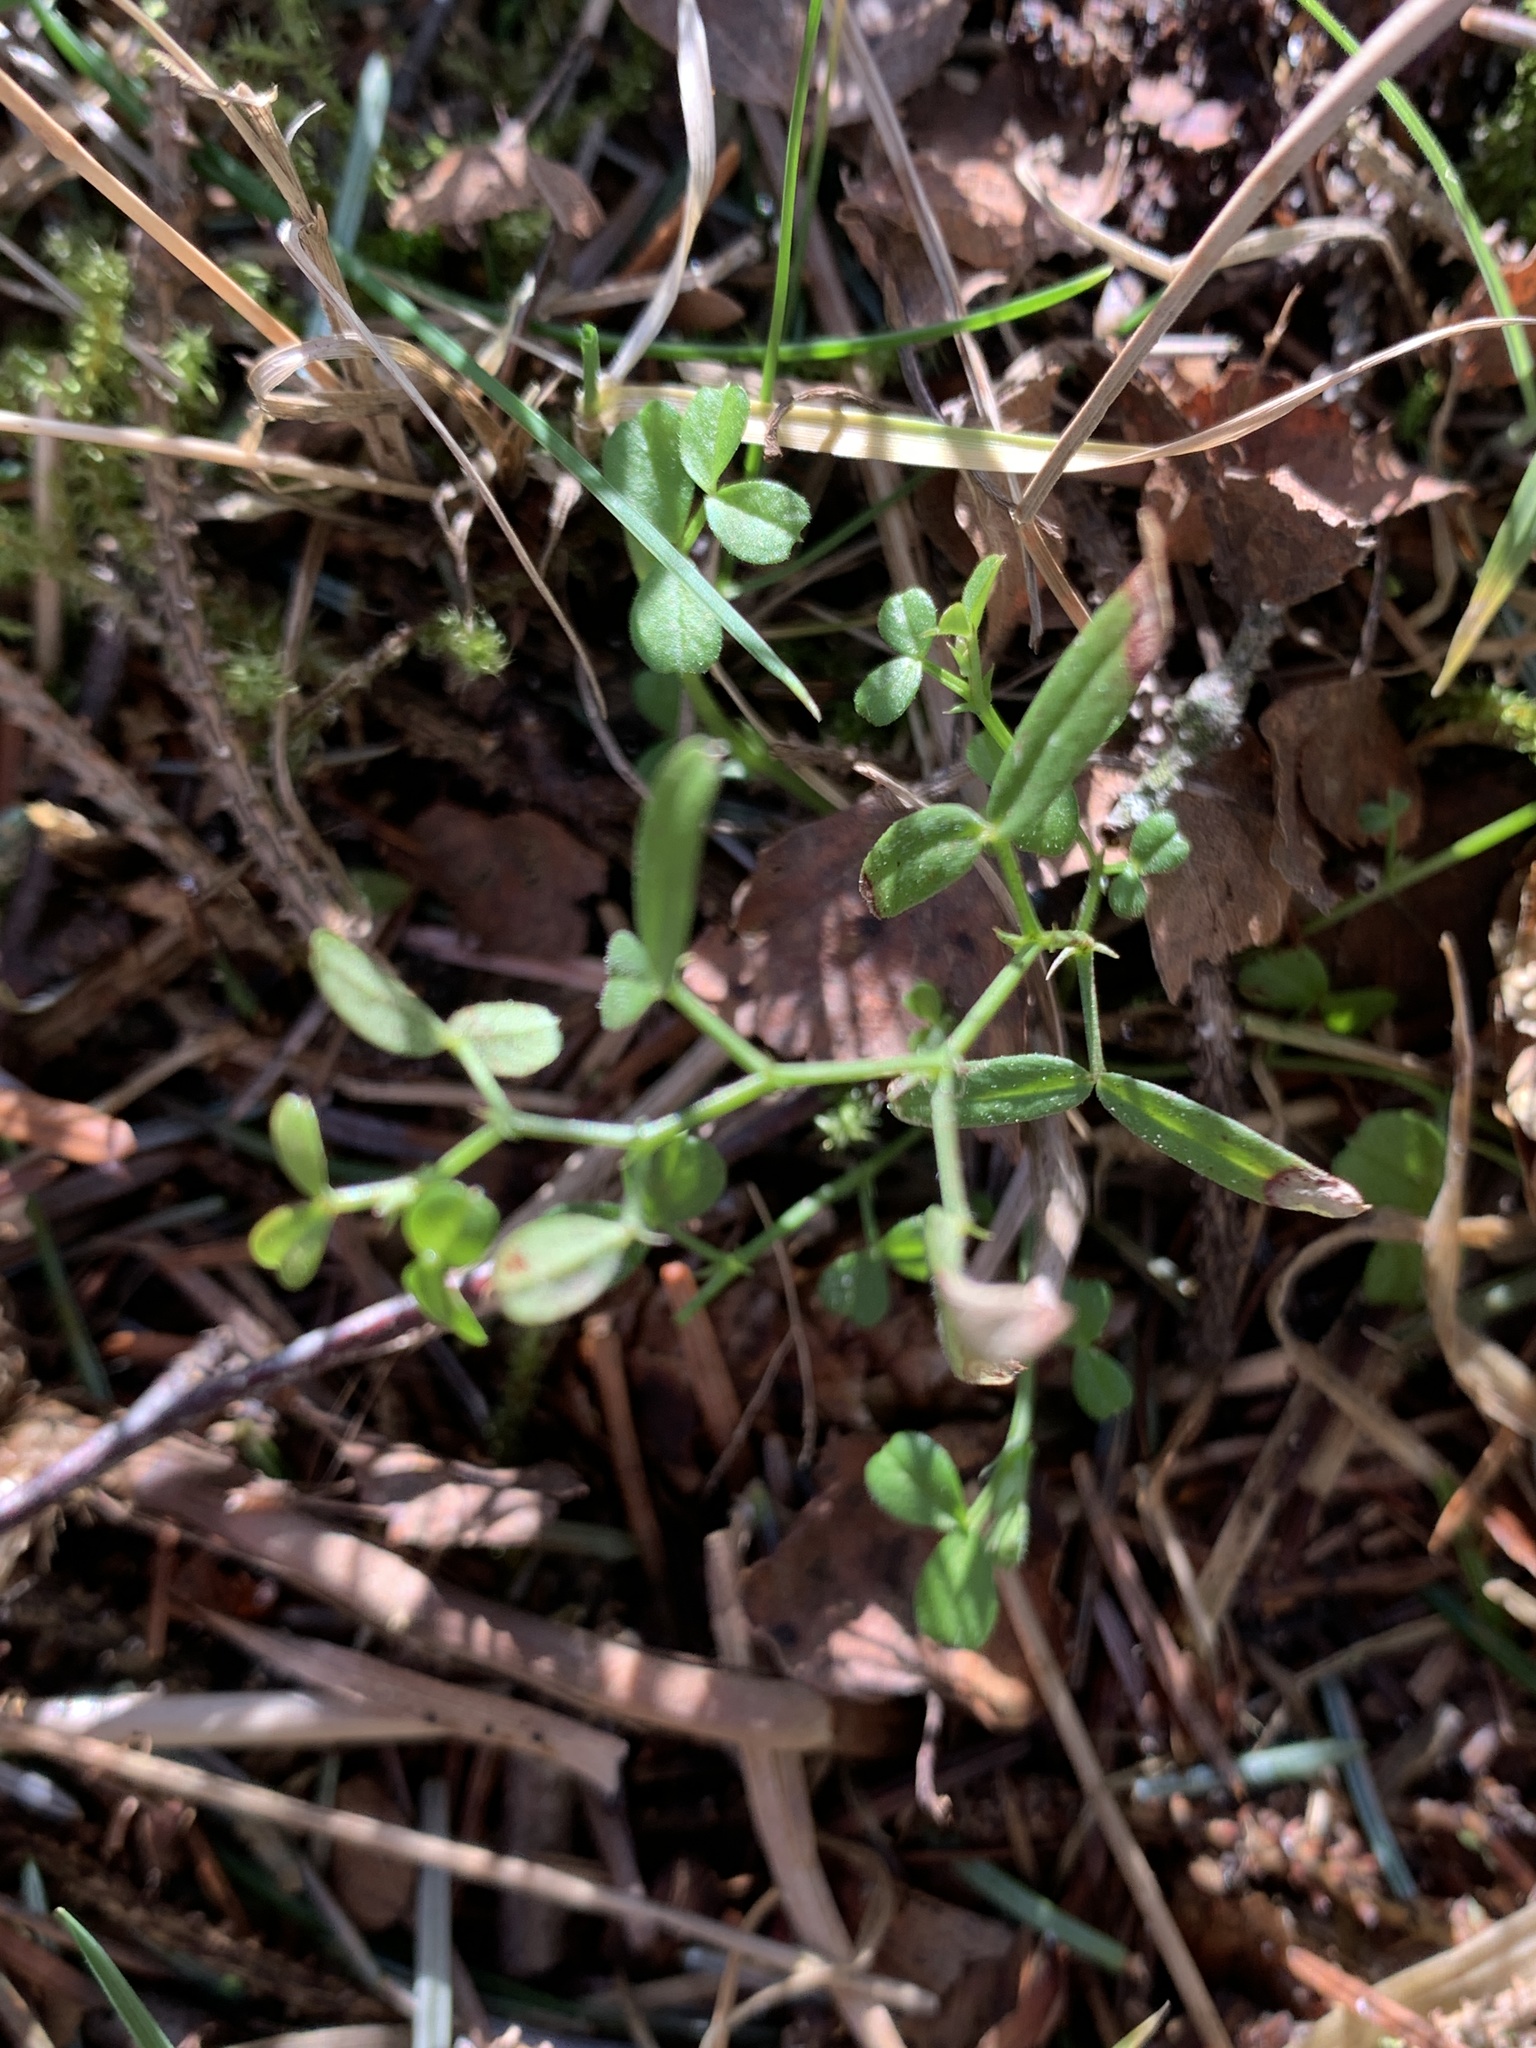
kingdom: Plantae
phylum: Tracheophyta
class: Magnoliopsida
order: Fabales
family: Fabaceae
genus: Vicia
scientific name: Vicia lathyroides
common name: Spring vetch
